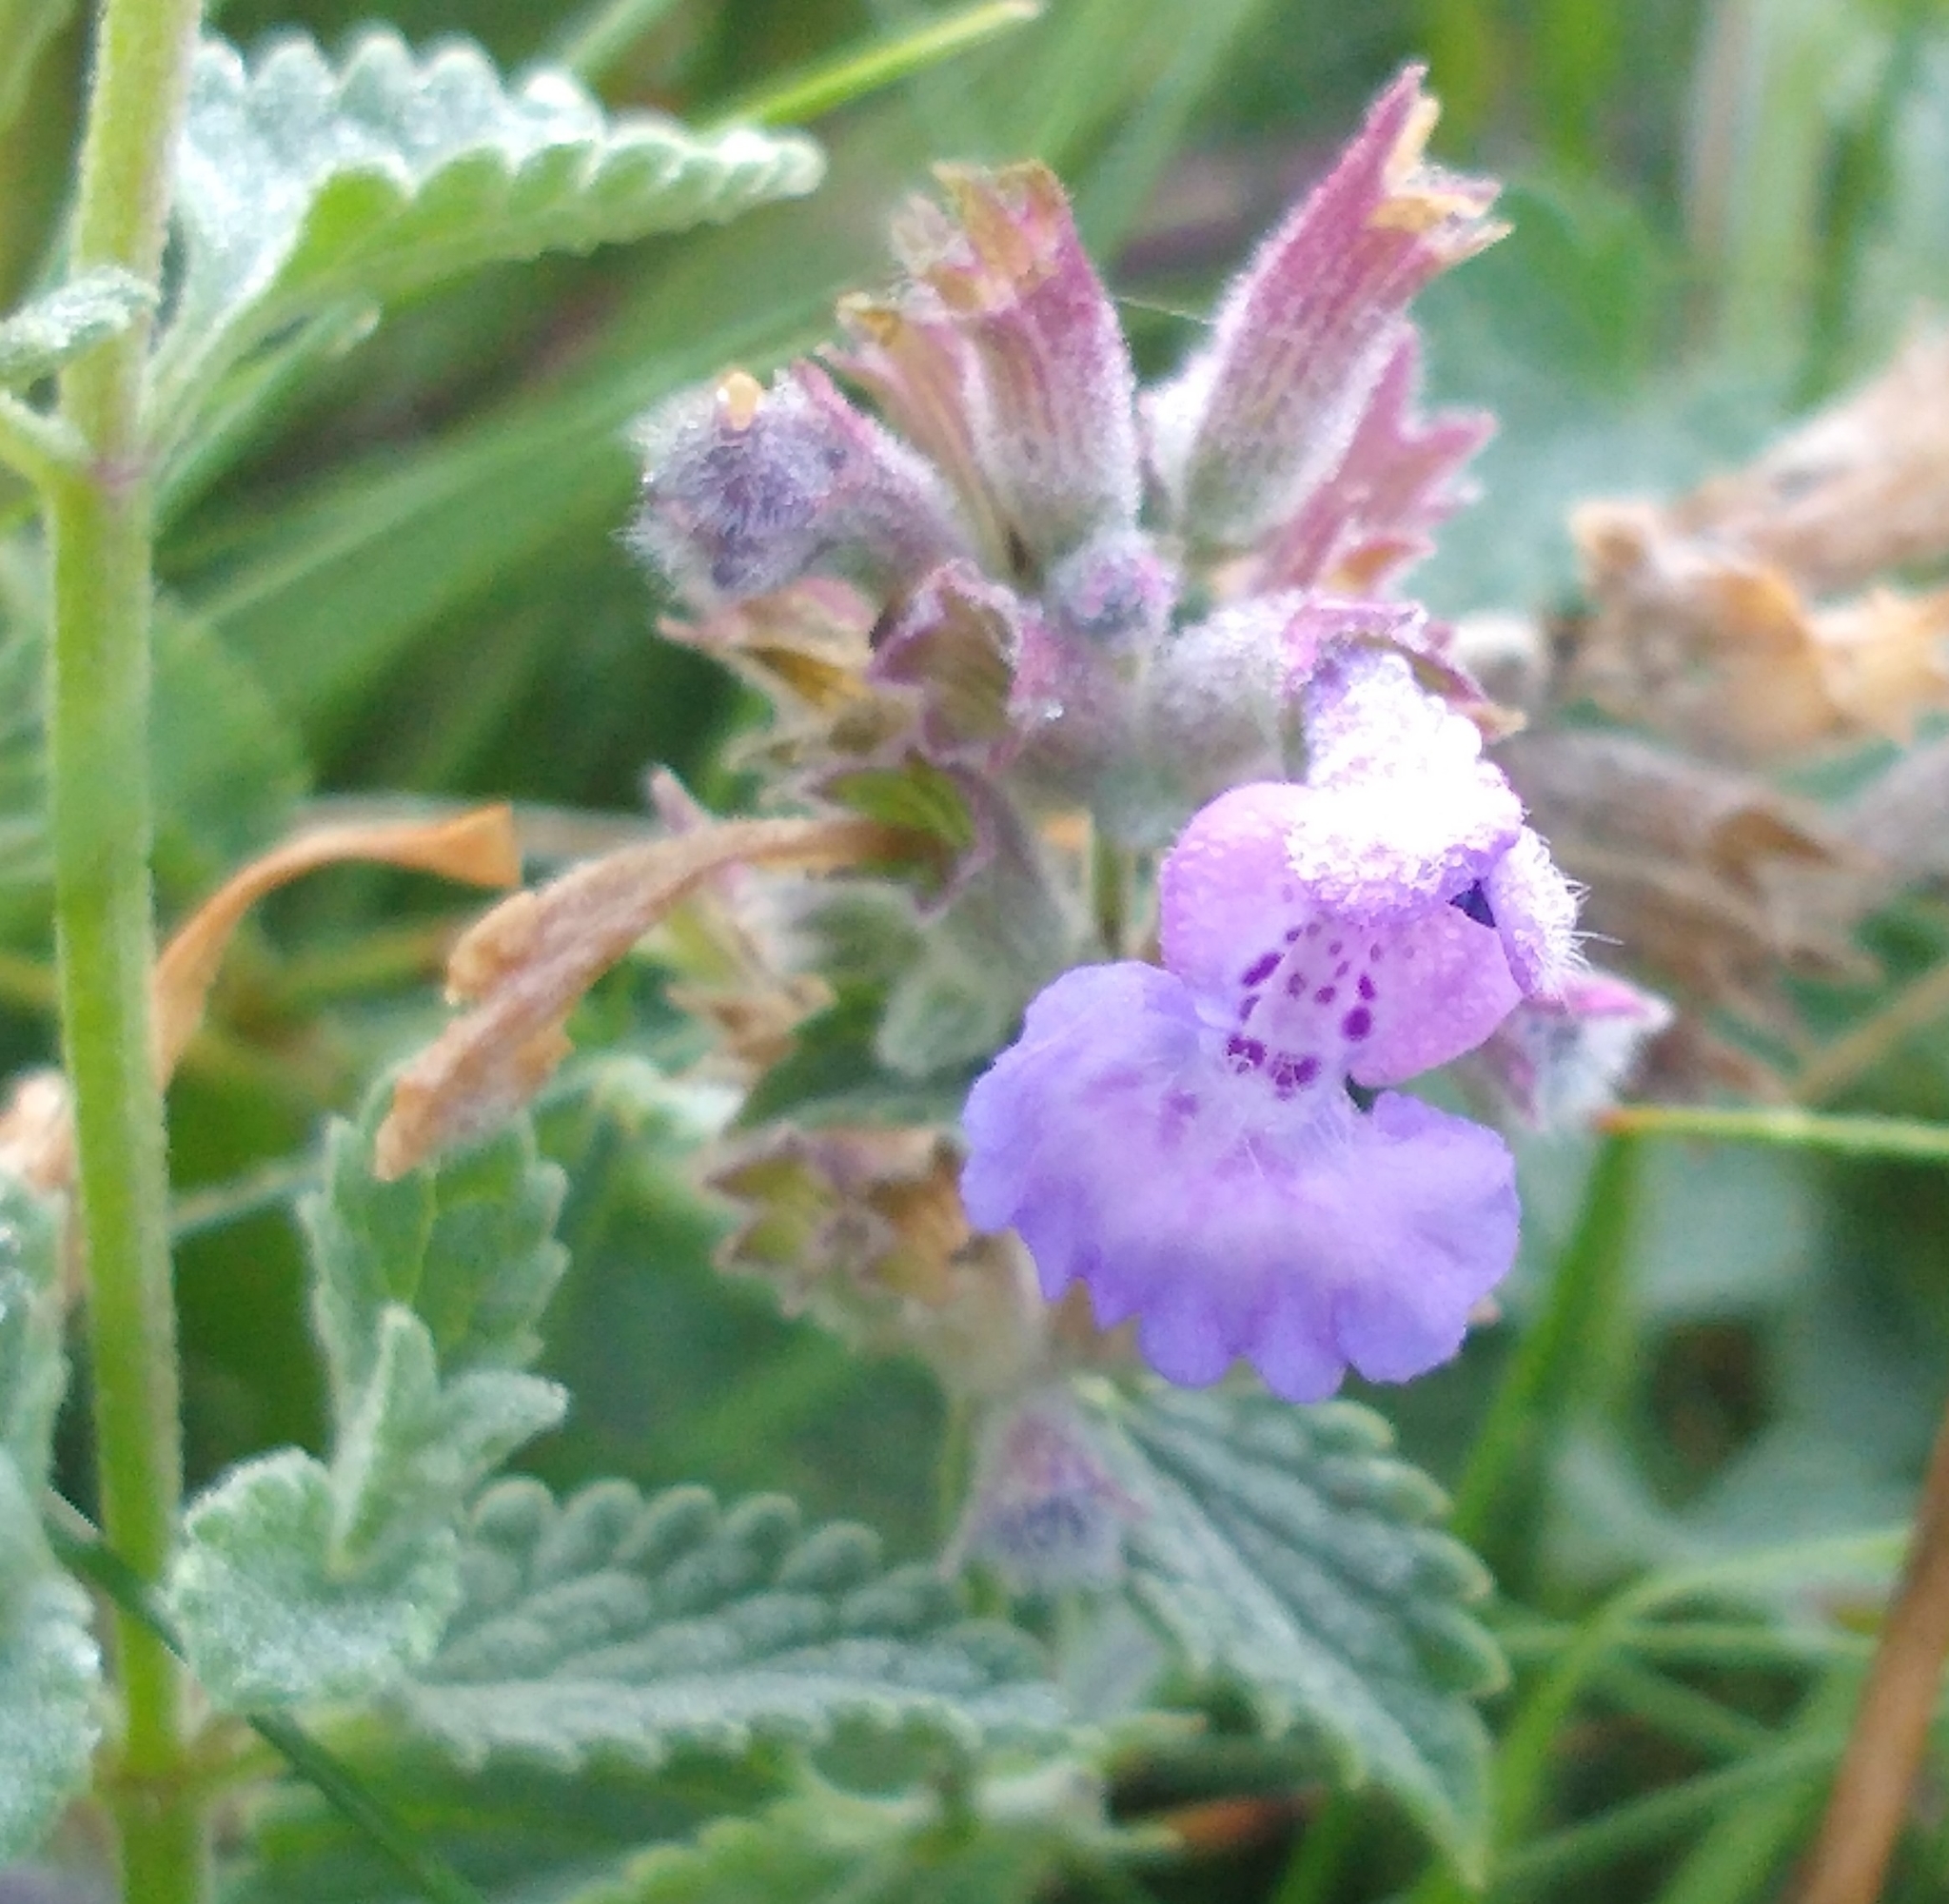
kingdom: Plantae
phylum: Tracheophyta
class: Magnoliopsida
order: Lamiales
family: Lamiaceae
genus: Nepeta
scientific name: Nepeta faassenii
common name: Catmint
